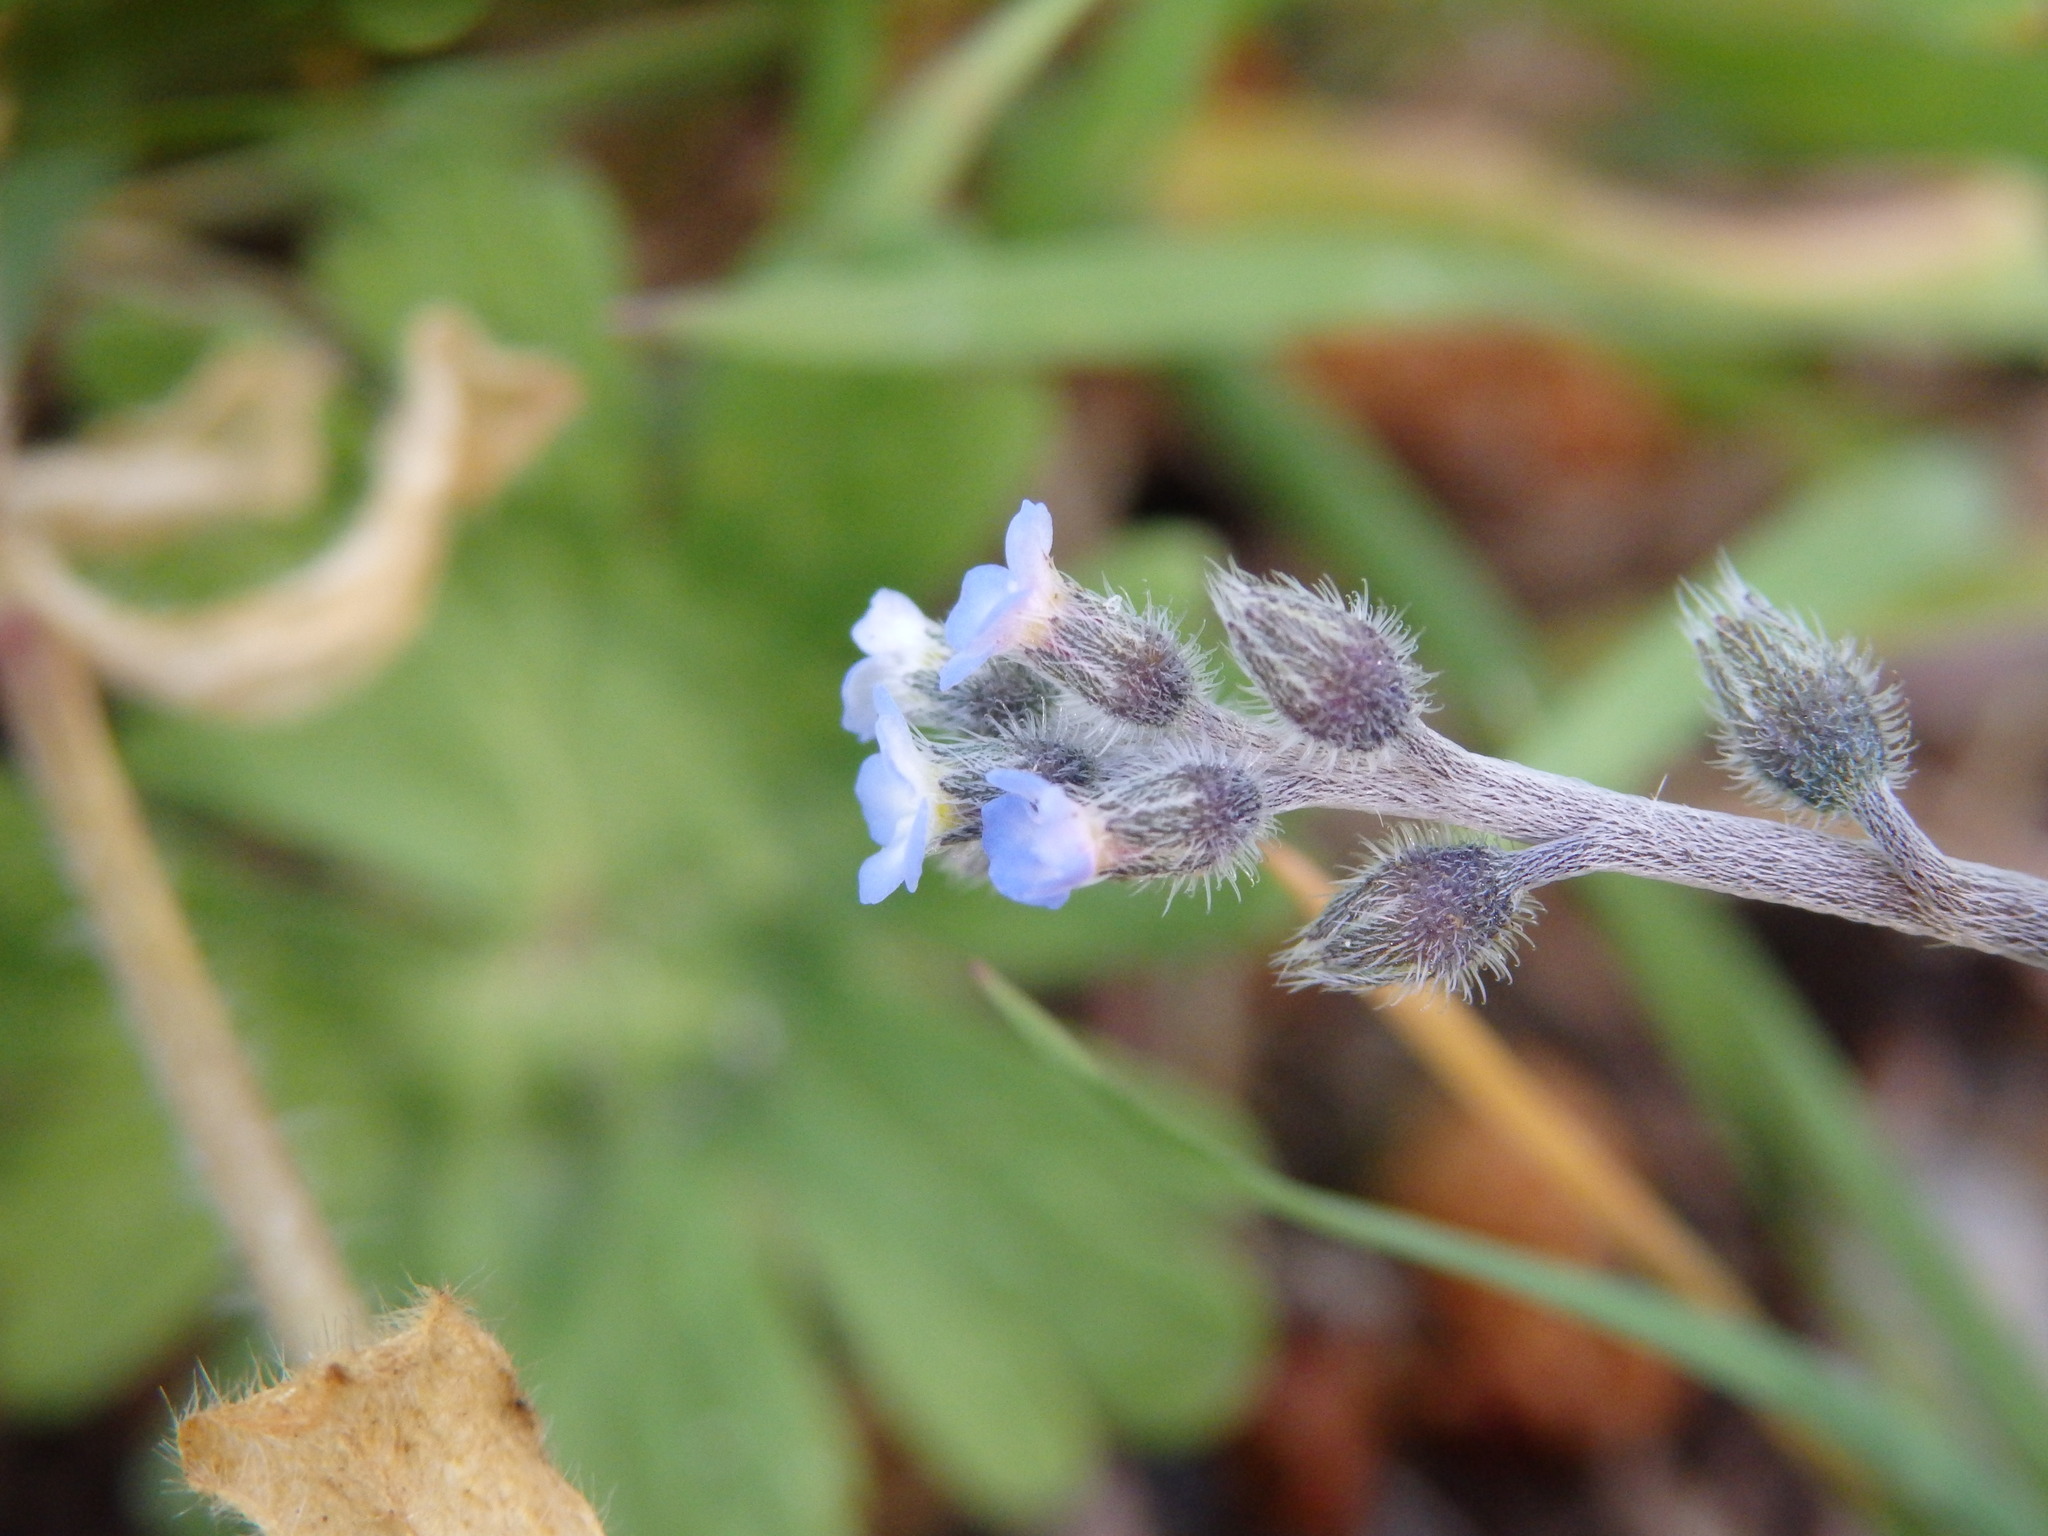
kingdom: Plantae
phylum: Tracheophyta
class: Magnoliopsida
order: Boraginales
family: Boraginaceae
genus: Myosotis
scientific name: Myosotis ramosissima
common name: Early forget-me-not
